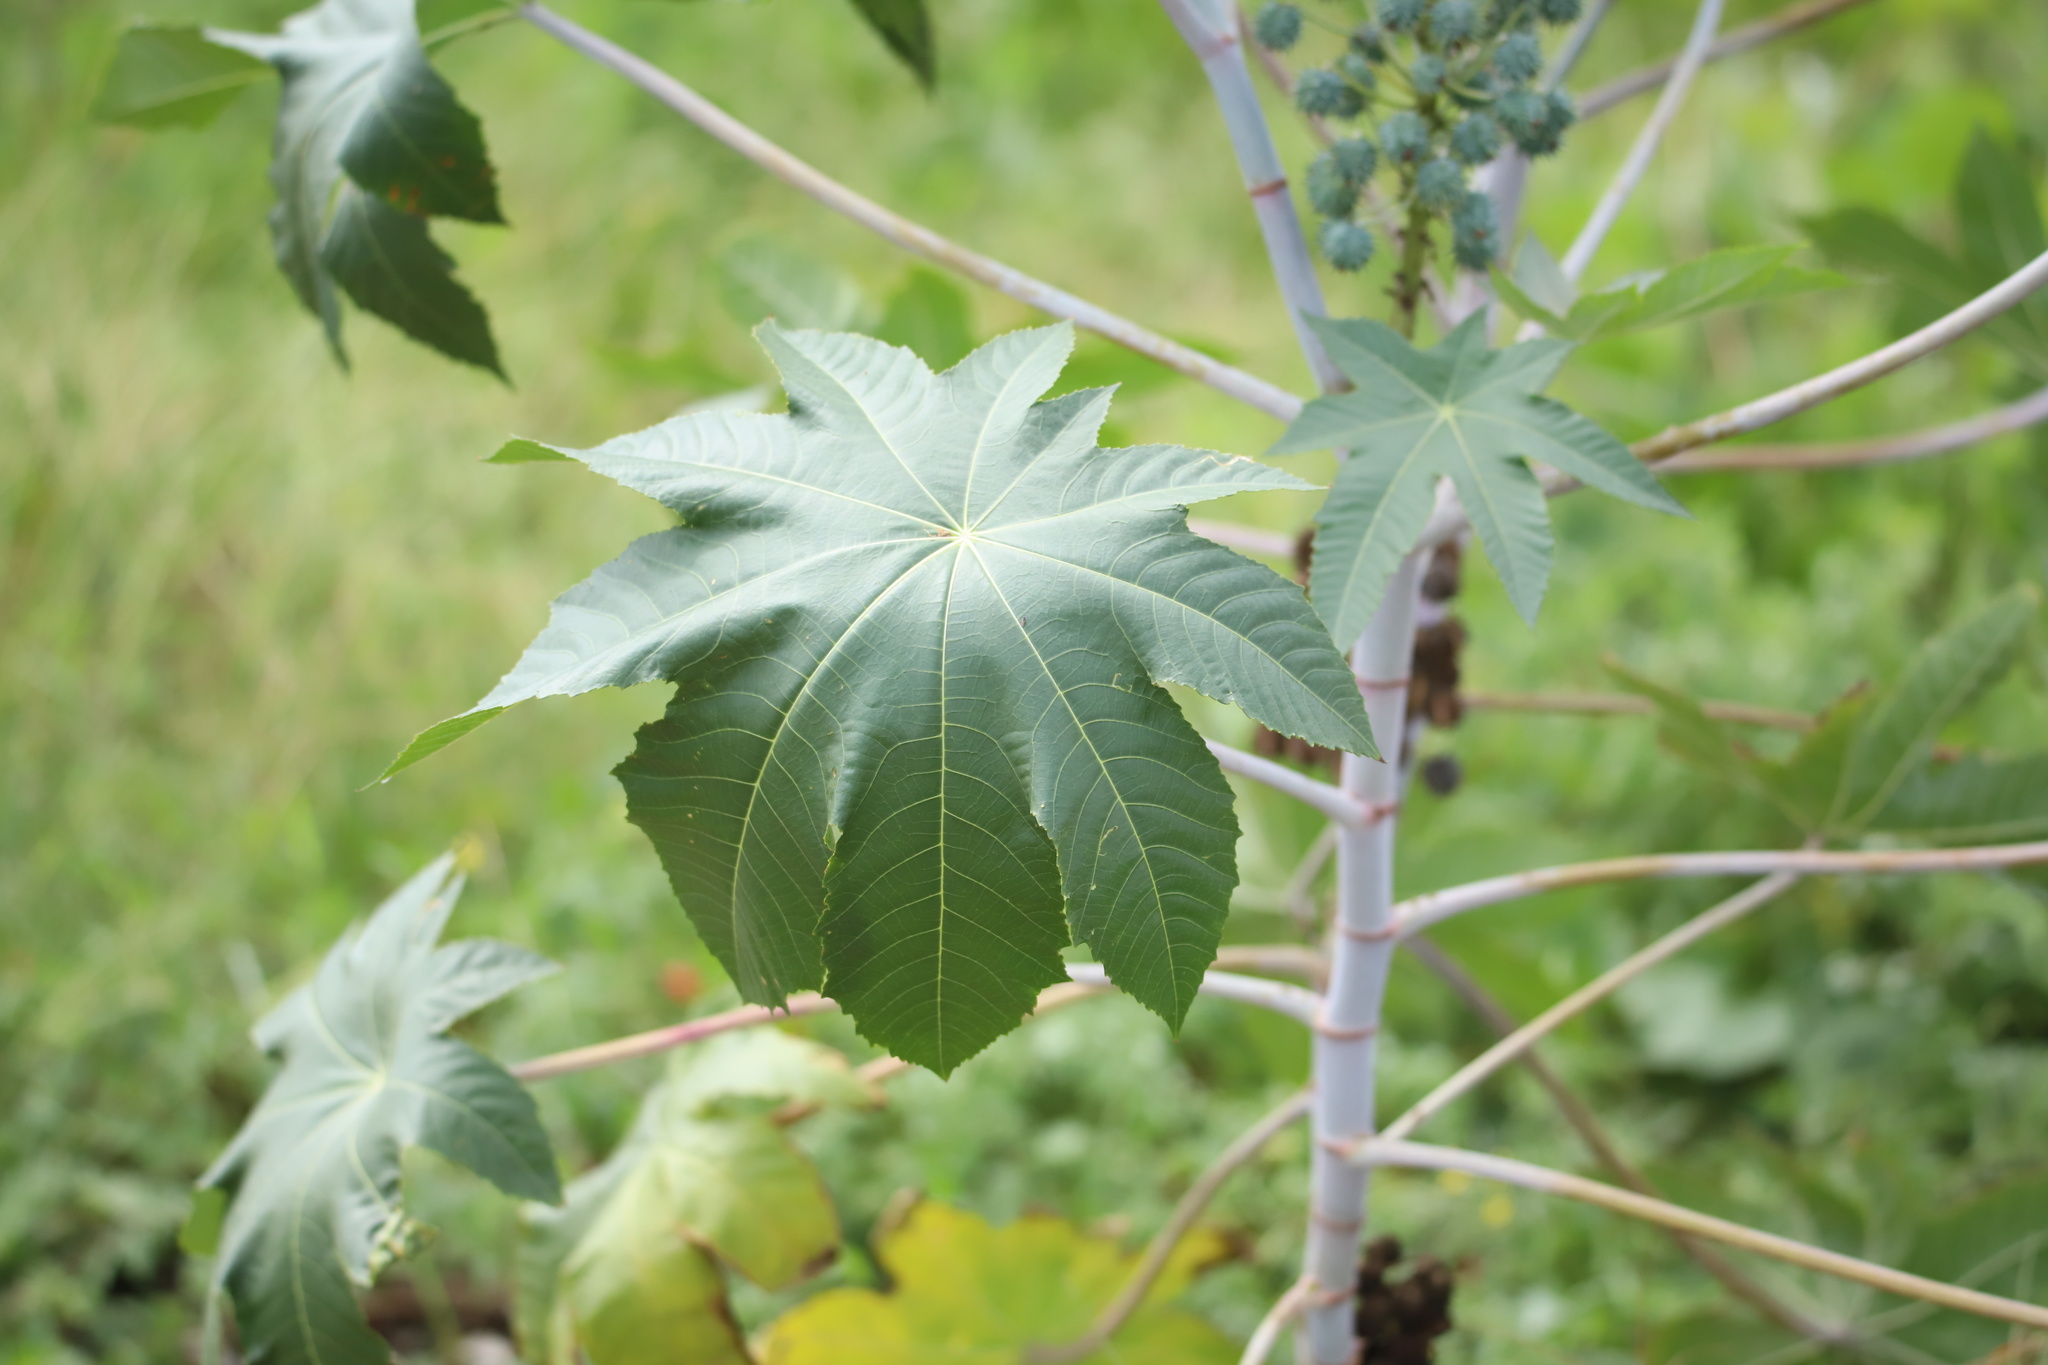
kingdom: Plantae
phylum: Tracheophyta
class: Magnoliopsida
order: Malpighiales
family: Euphorbiaceae
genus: Ricinus
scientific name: Ricinus communis
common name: Castor-oil-plant
